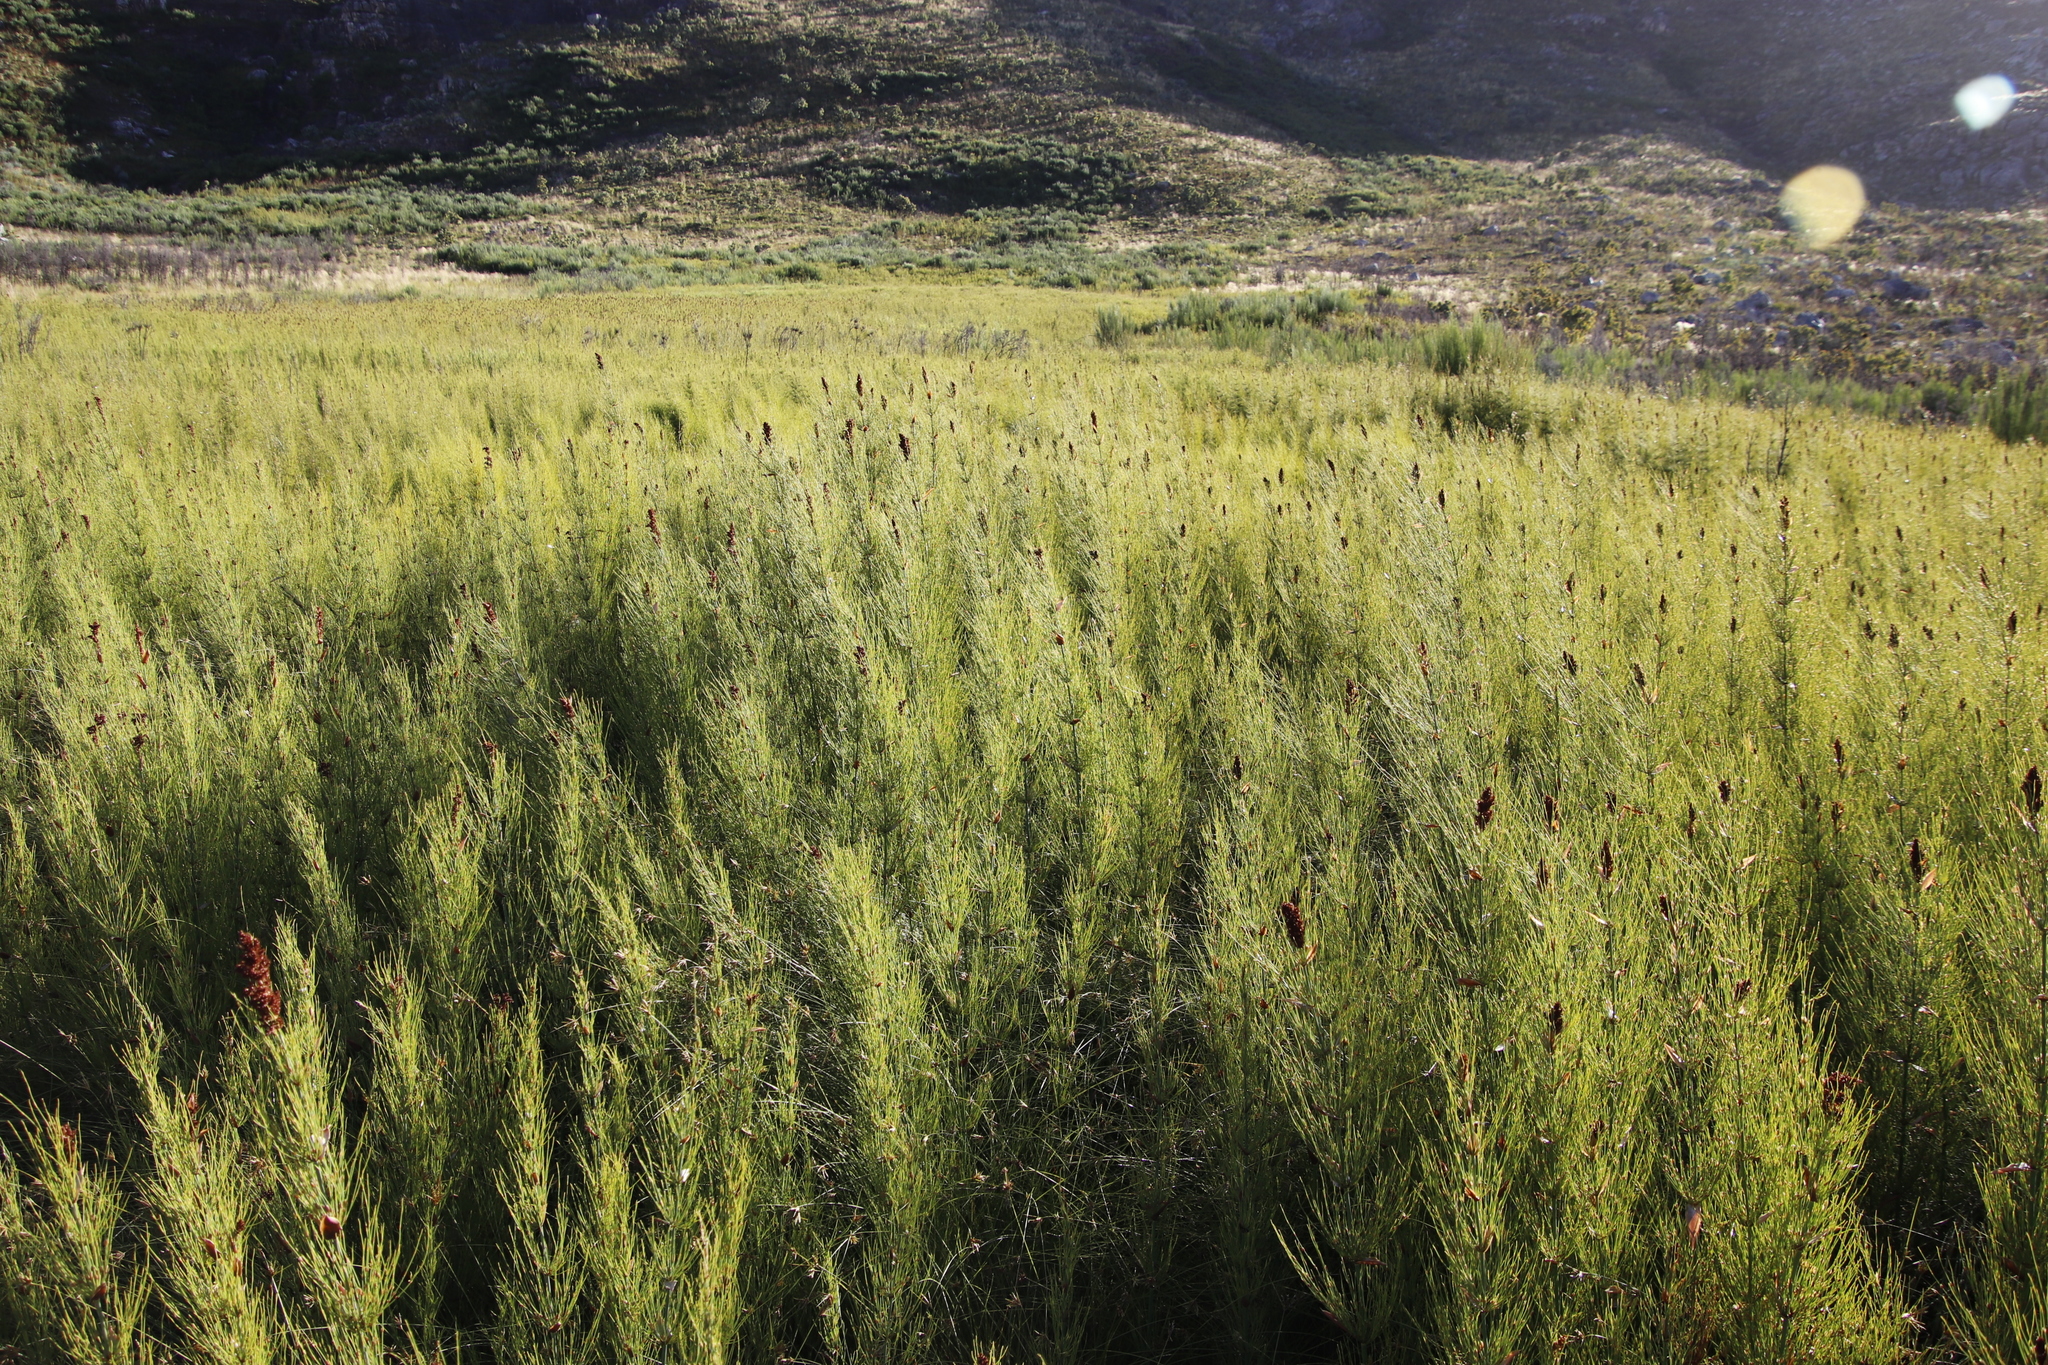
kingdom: Plantae
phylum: Tracheophyta
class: Liliopsida
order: Poales
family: Restionaceae
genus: Elegia
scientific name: Elegia capensis
